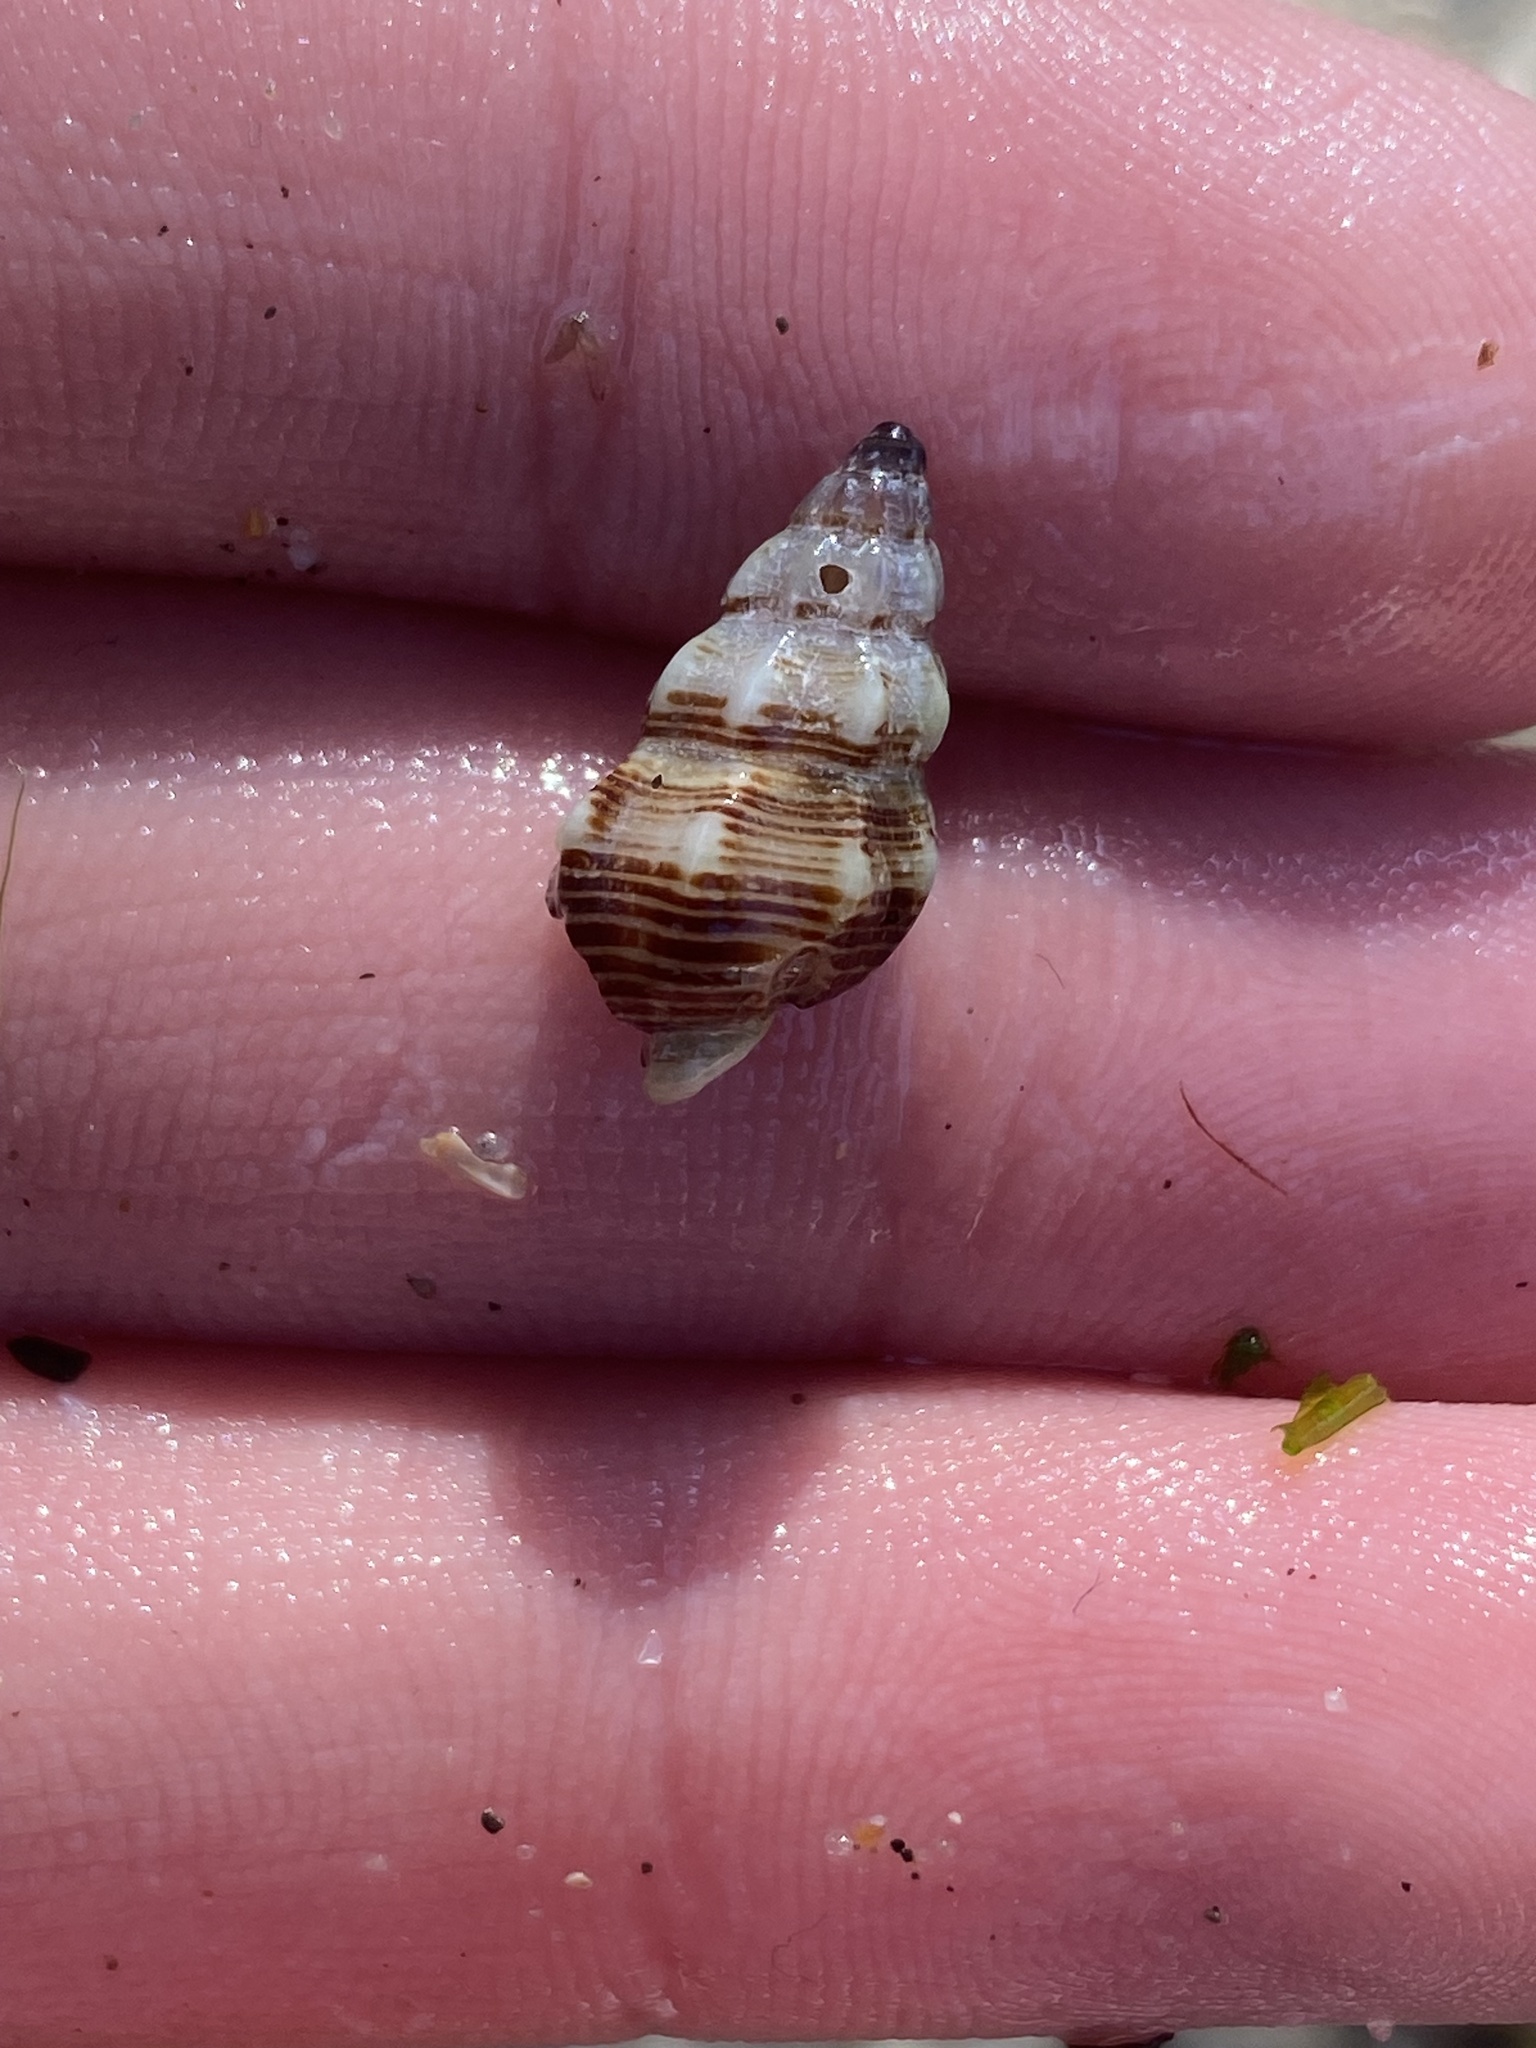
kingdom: Animalia
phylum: Mollusca
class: Gastropoda
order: Neogastropoda
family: Nassariidae
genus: Nassarius
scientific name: Nassarius mendicus
